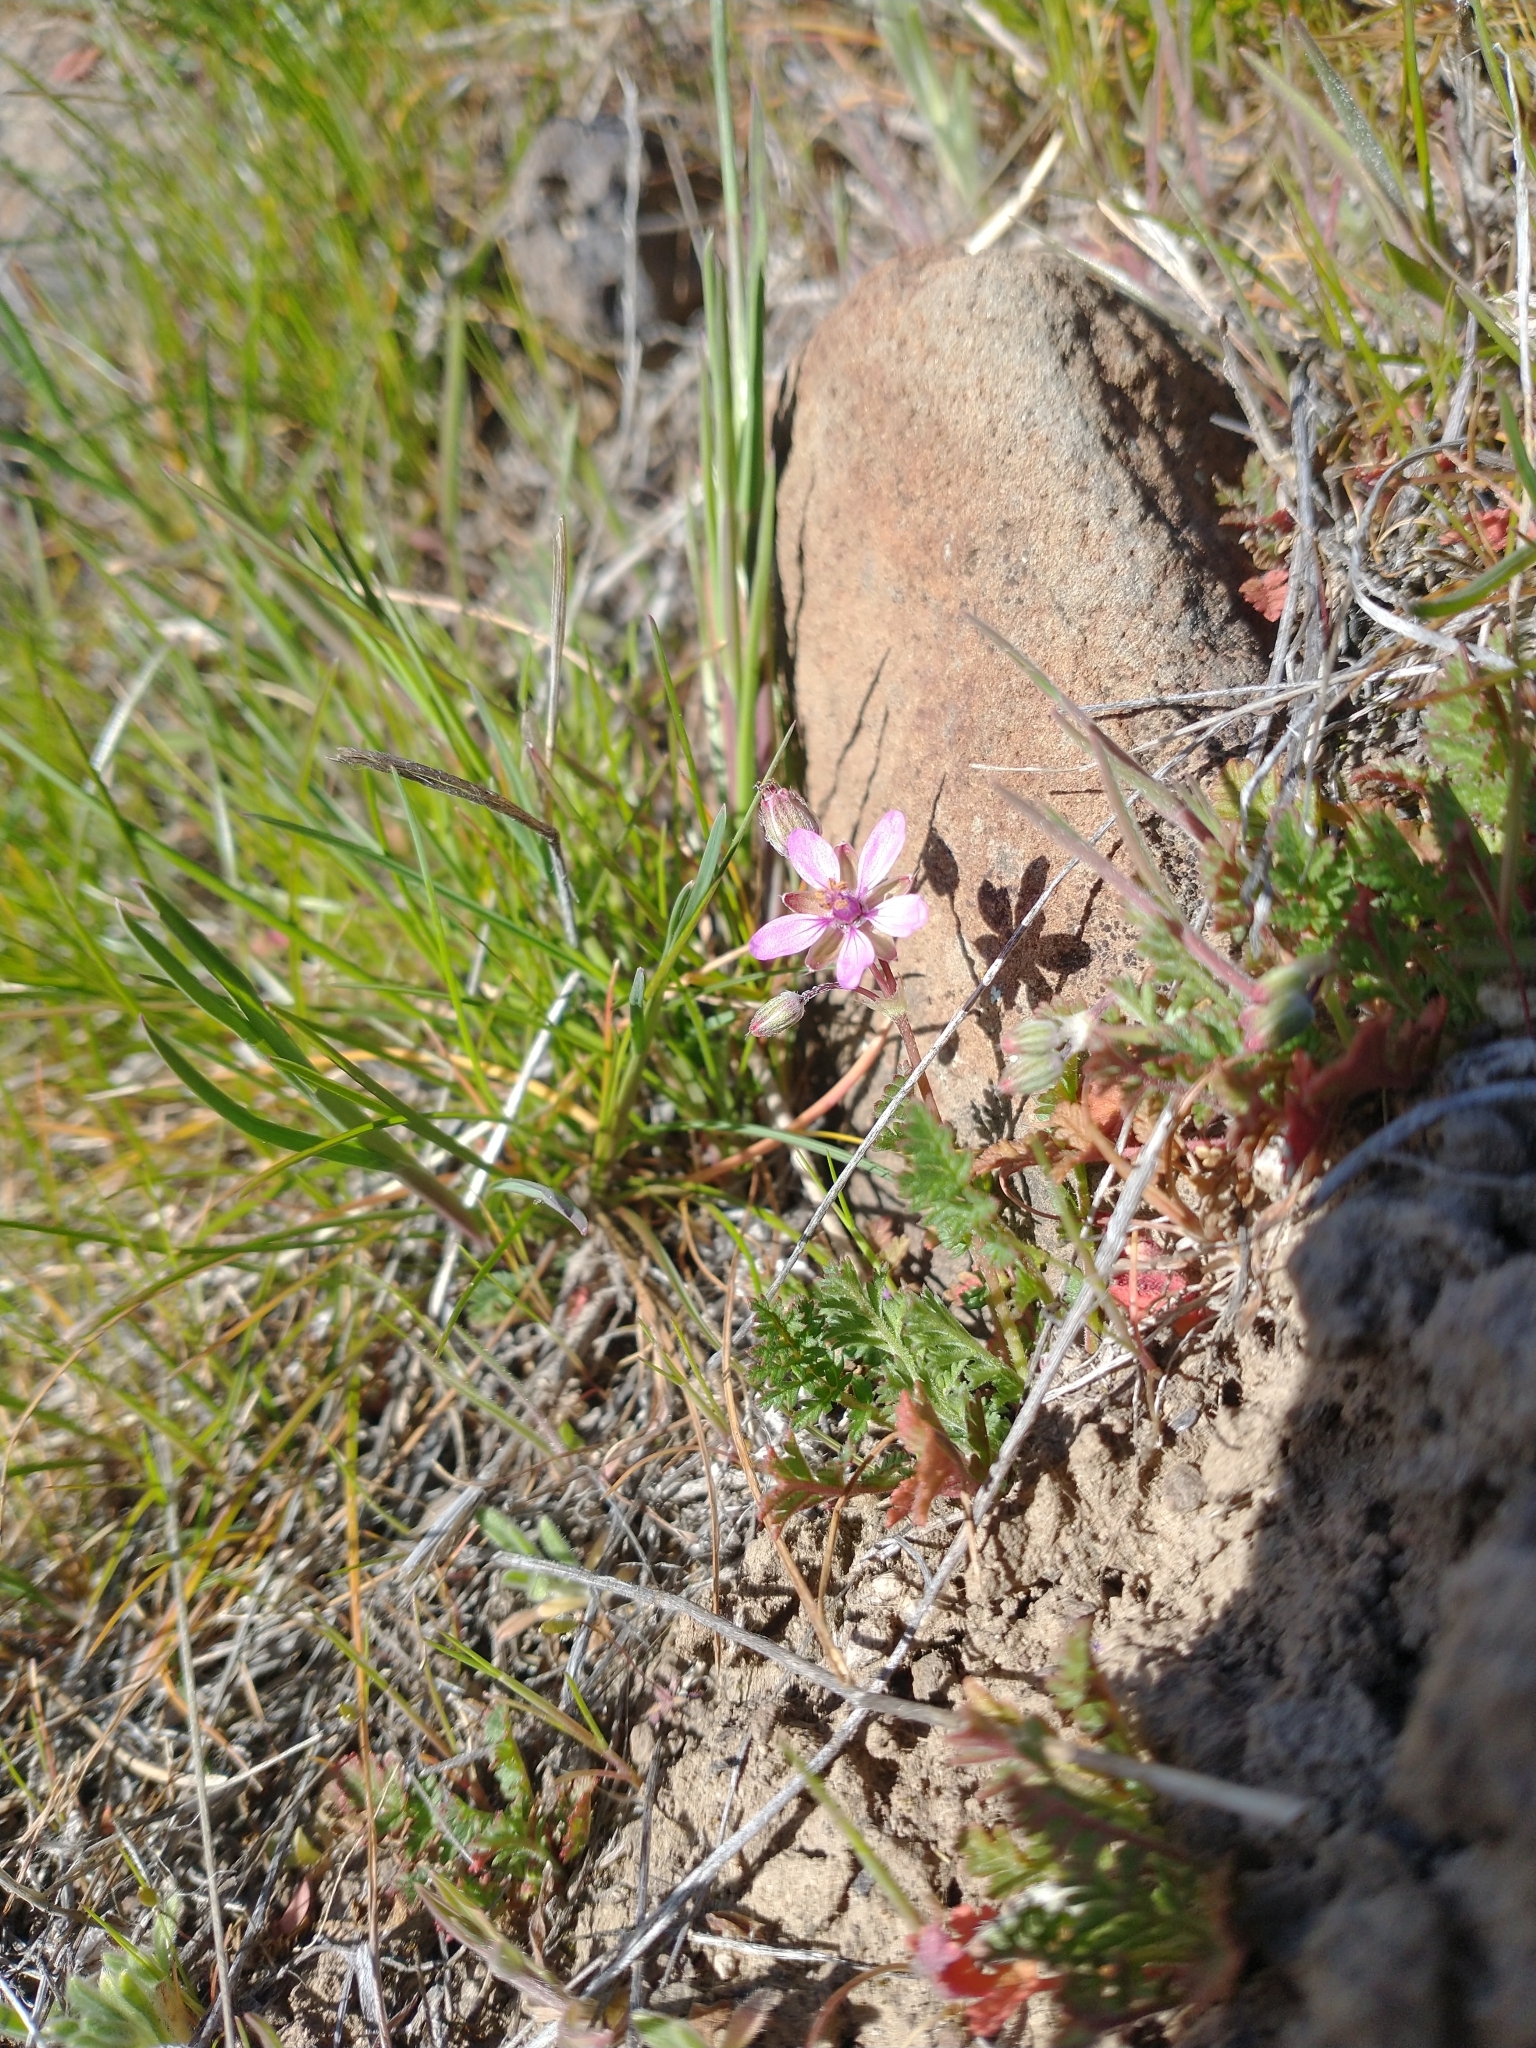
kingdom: Plantae
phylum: Tracheophyta
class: Magnoliopsida
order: Geraniales
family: Geraniaceae
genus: Erodium
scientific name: Erodium cicutarium
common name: Common stork's-bill
